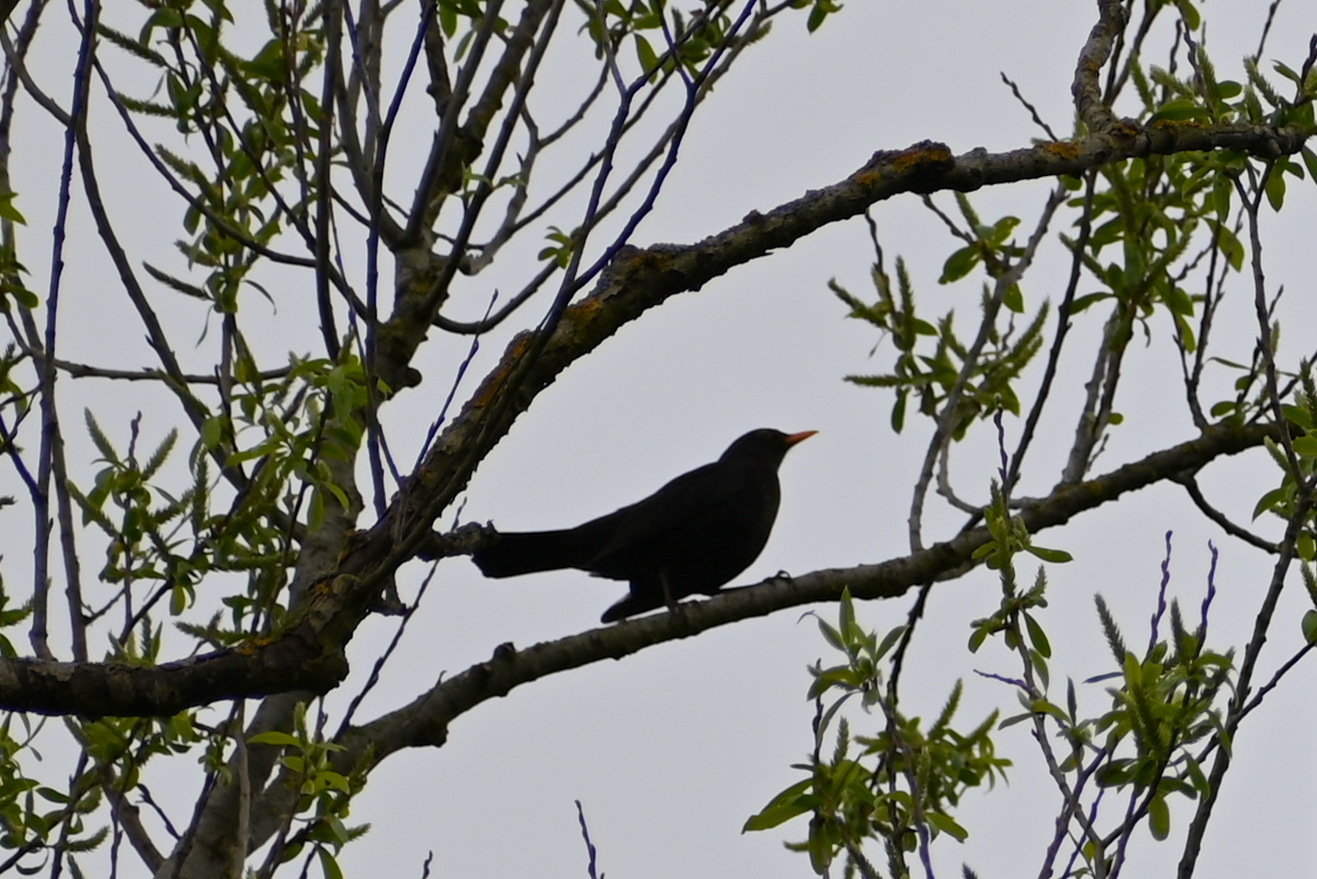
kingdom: Animalia
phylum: Chordata
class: Aves
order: Passeriformes
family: Turdidae
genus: Turdus
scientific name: Turdus merula
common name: Common blackbird
